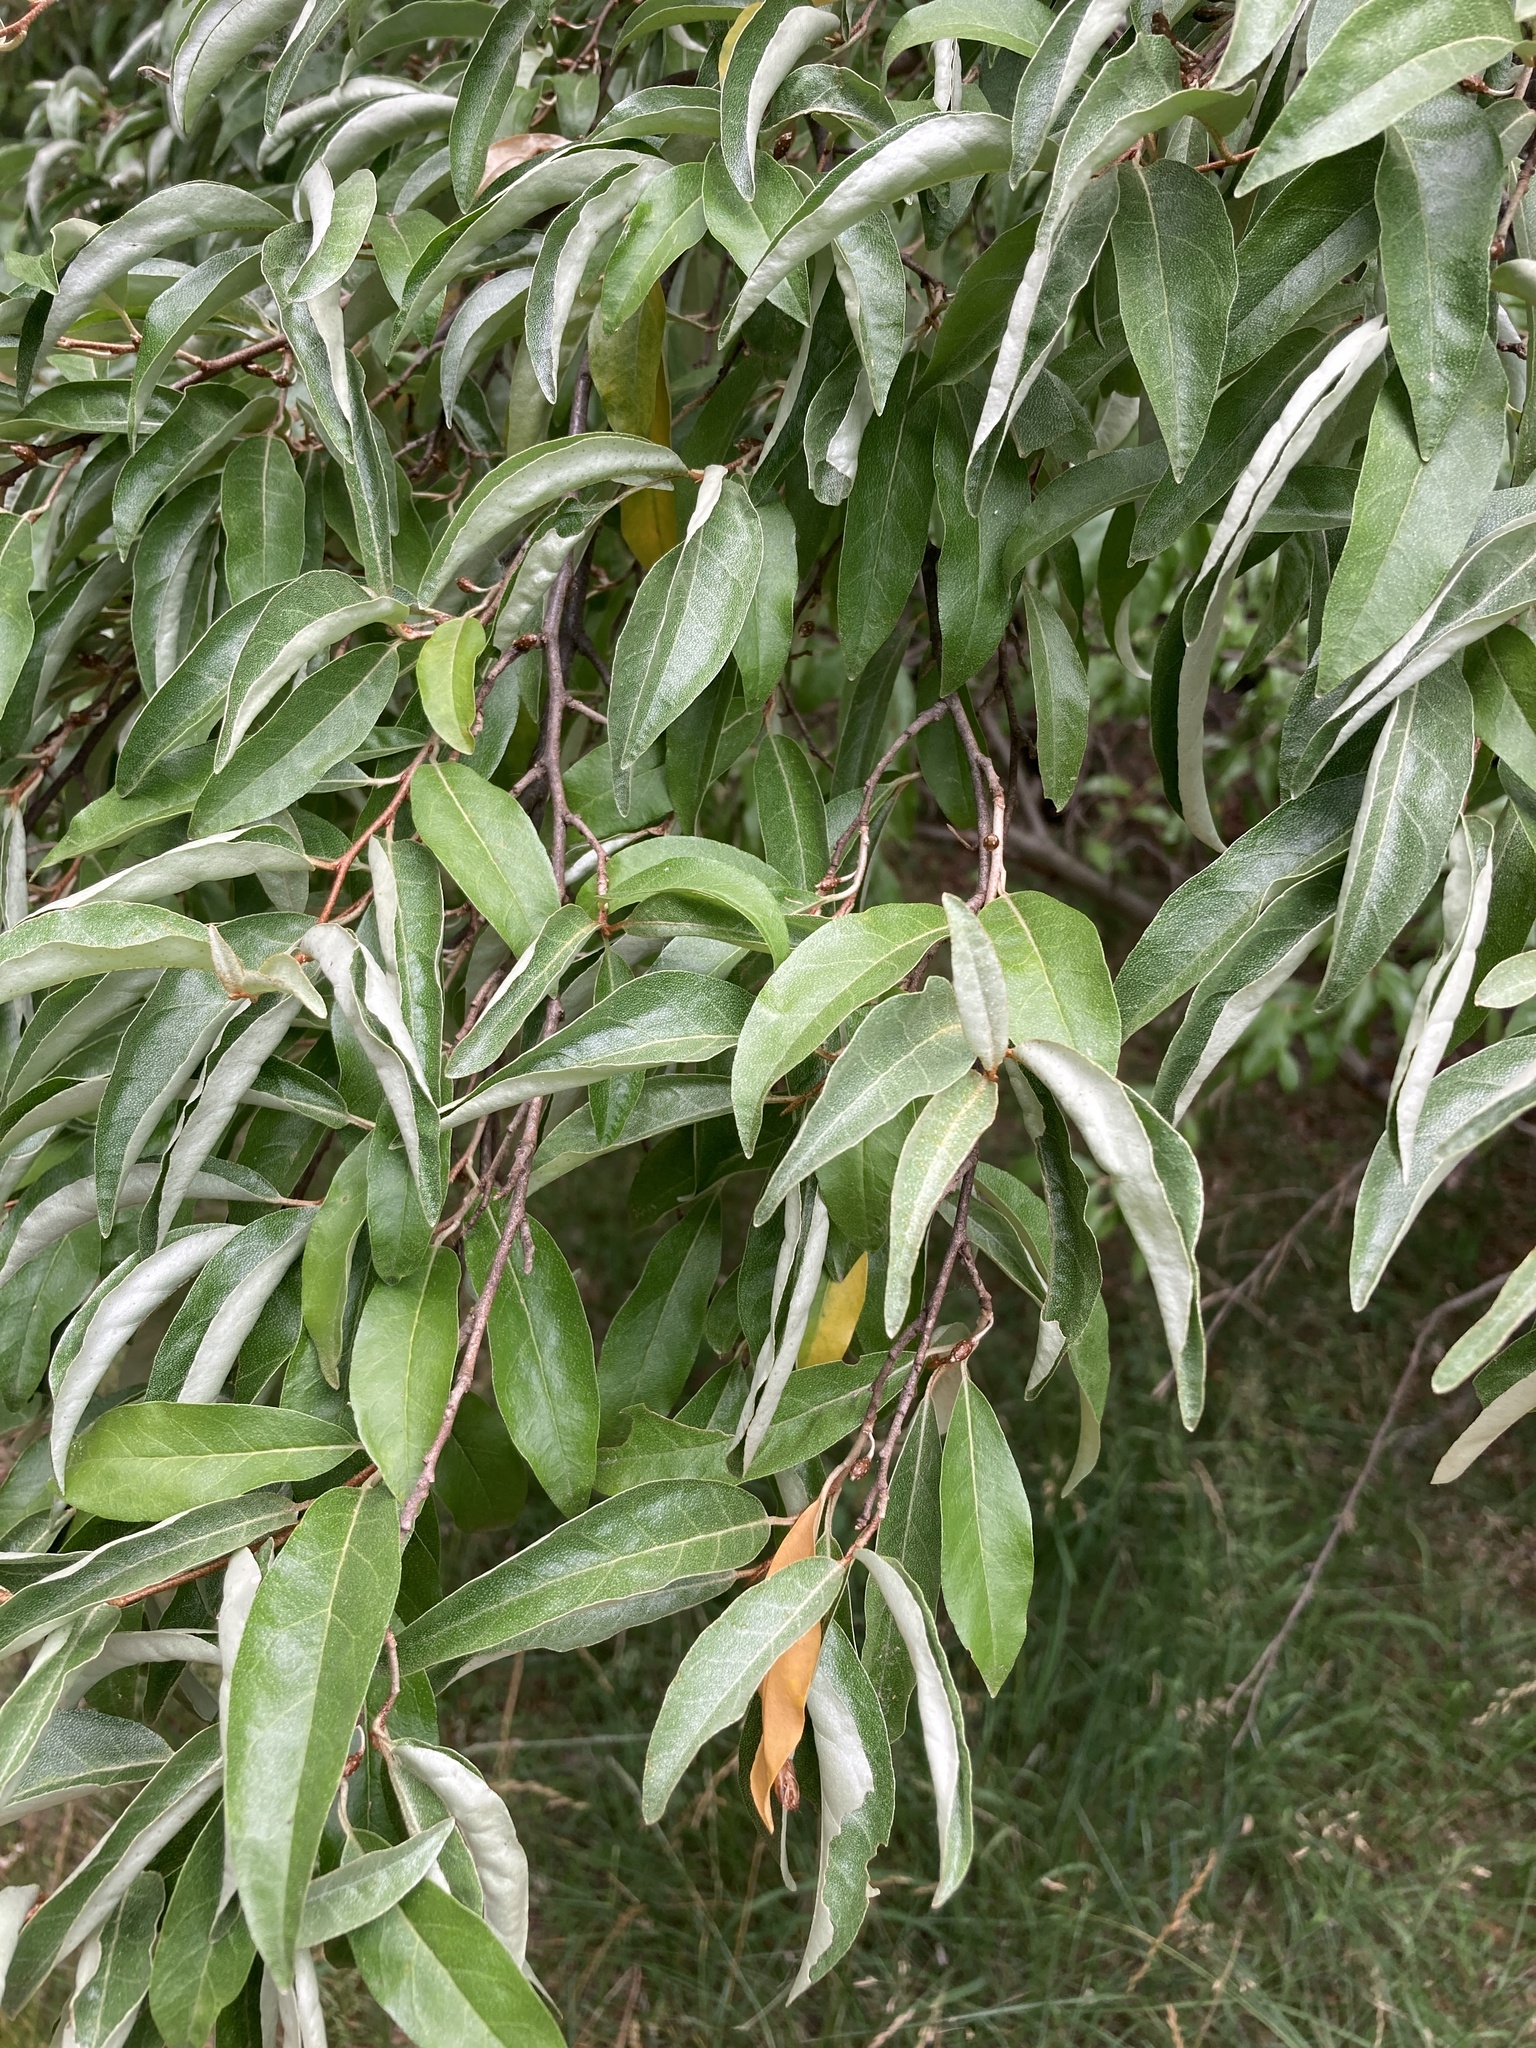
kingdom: Plantae
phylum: Tracheophyta
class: Magnoliopsida
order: Rosales
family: Elaeagnaceae
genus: Elaeagnus
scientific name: Elaeagnus umbellata
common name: Autumn olive
